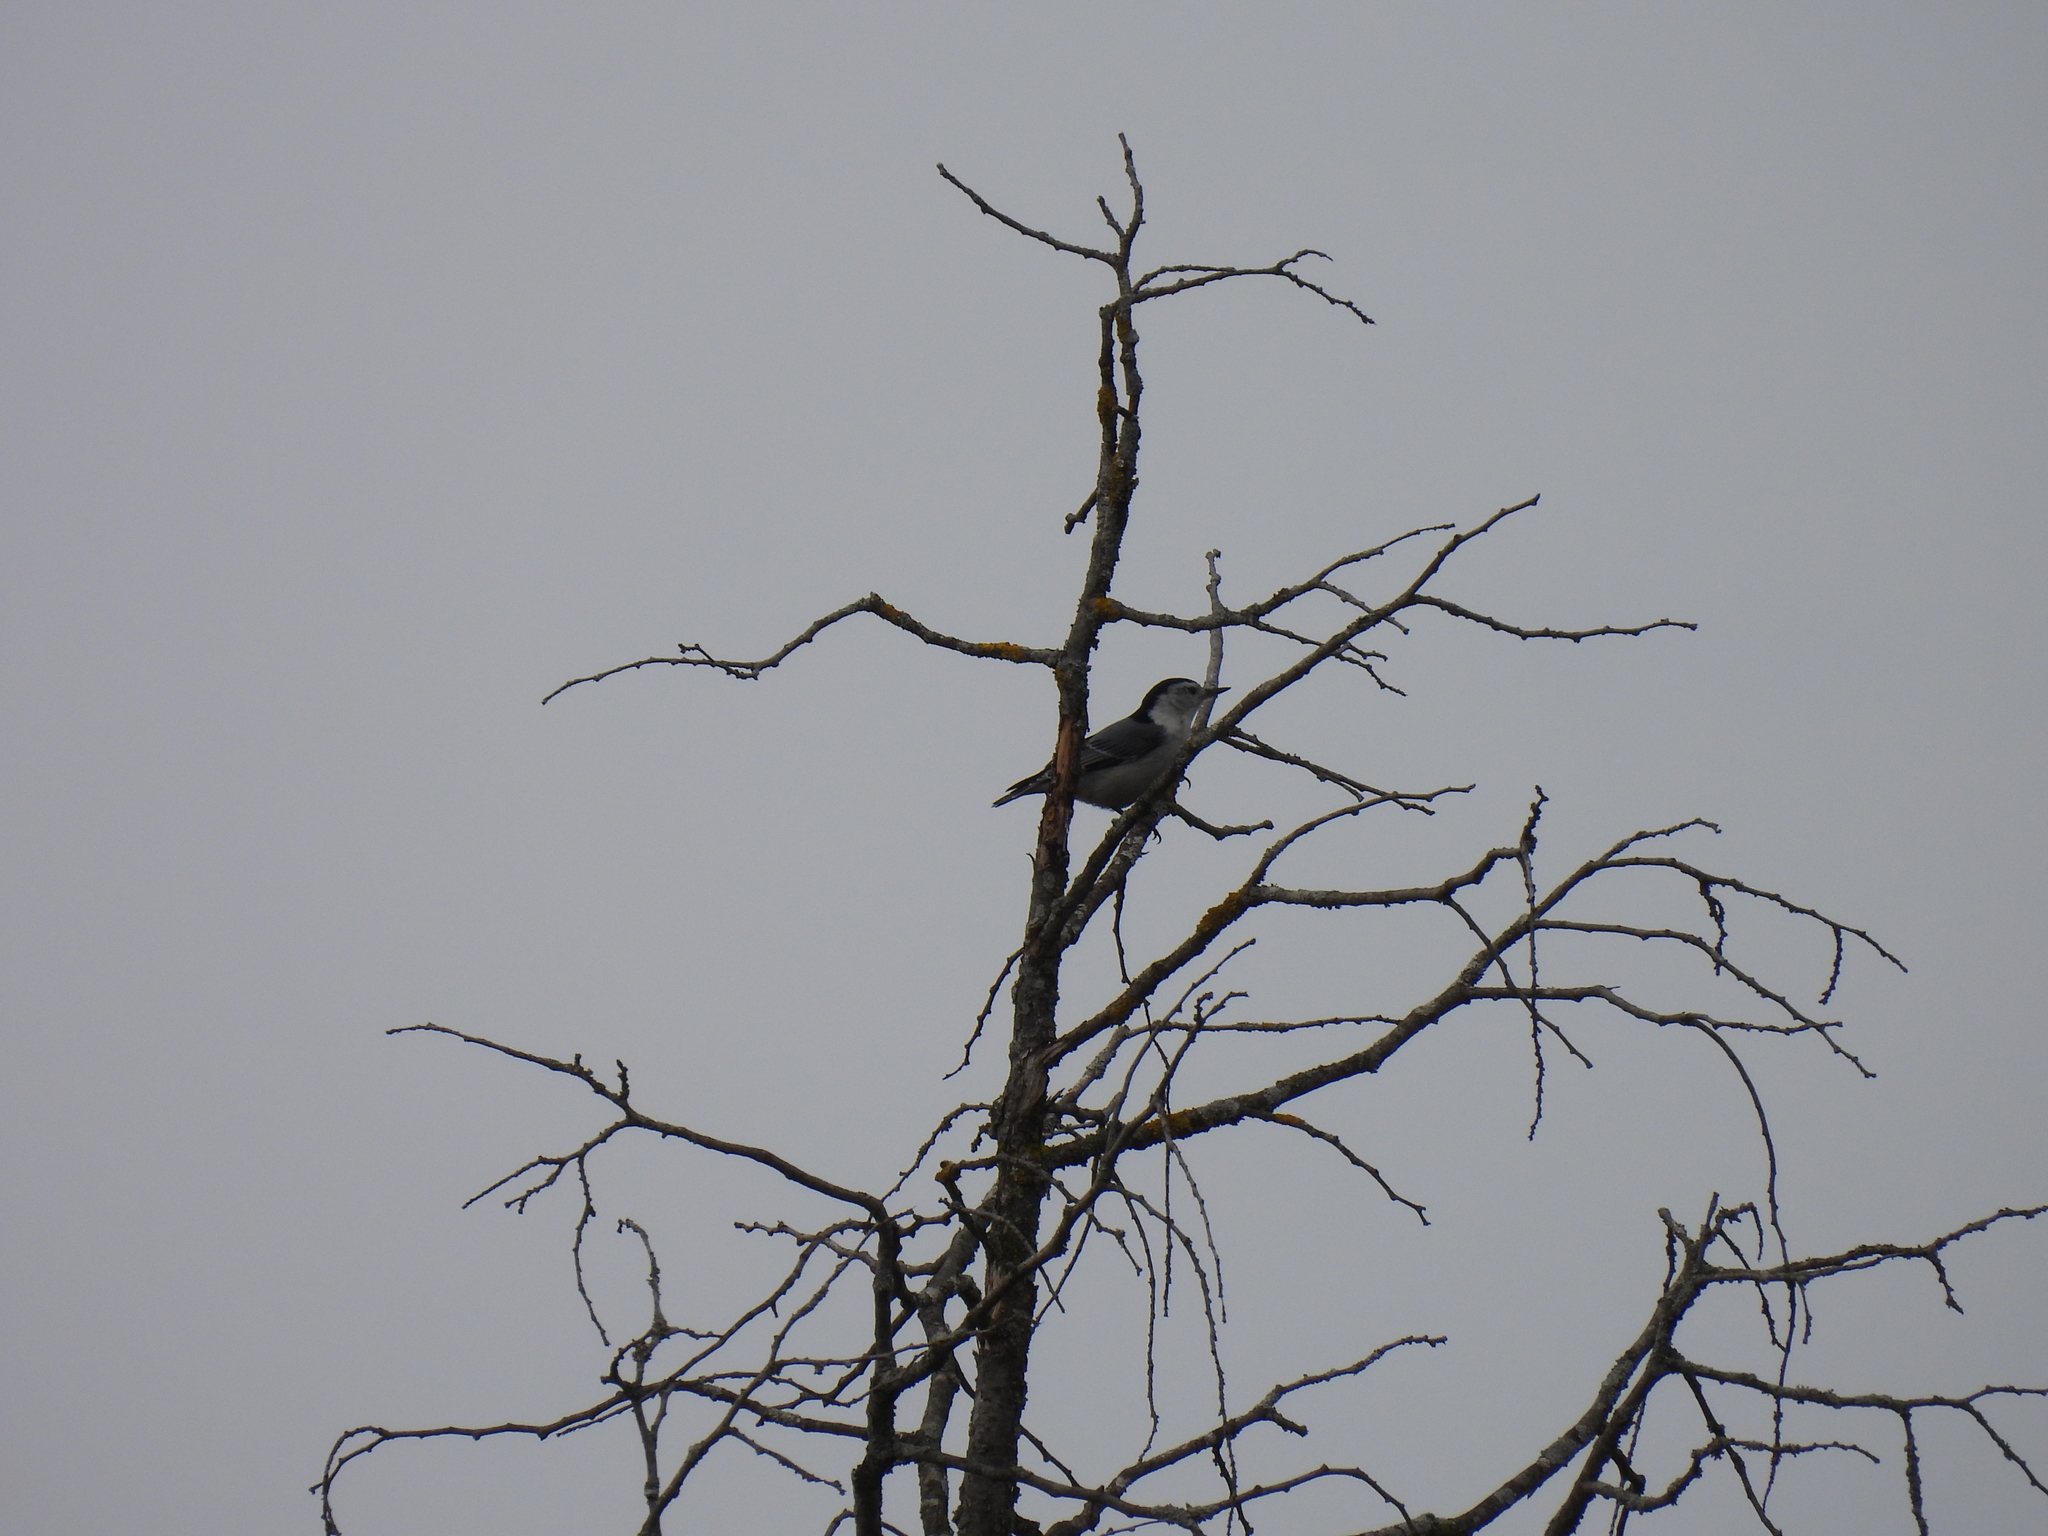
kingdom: Animalia
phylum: Chordata
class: Aves
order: Passeriformes
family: Sittidae
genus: Sitta
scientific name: Sitta carolinensis
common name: White-breasted nuthatch
